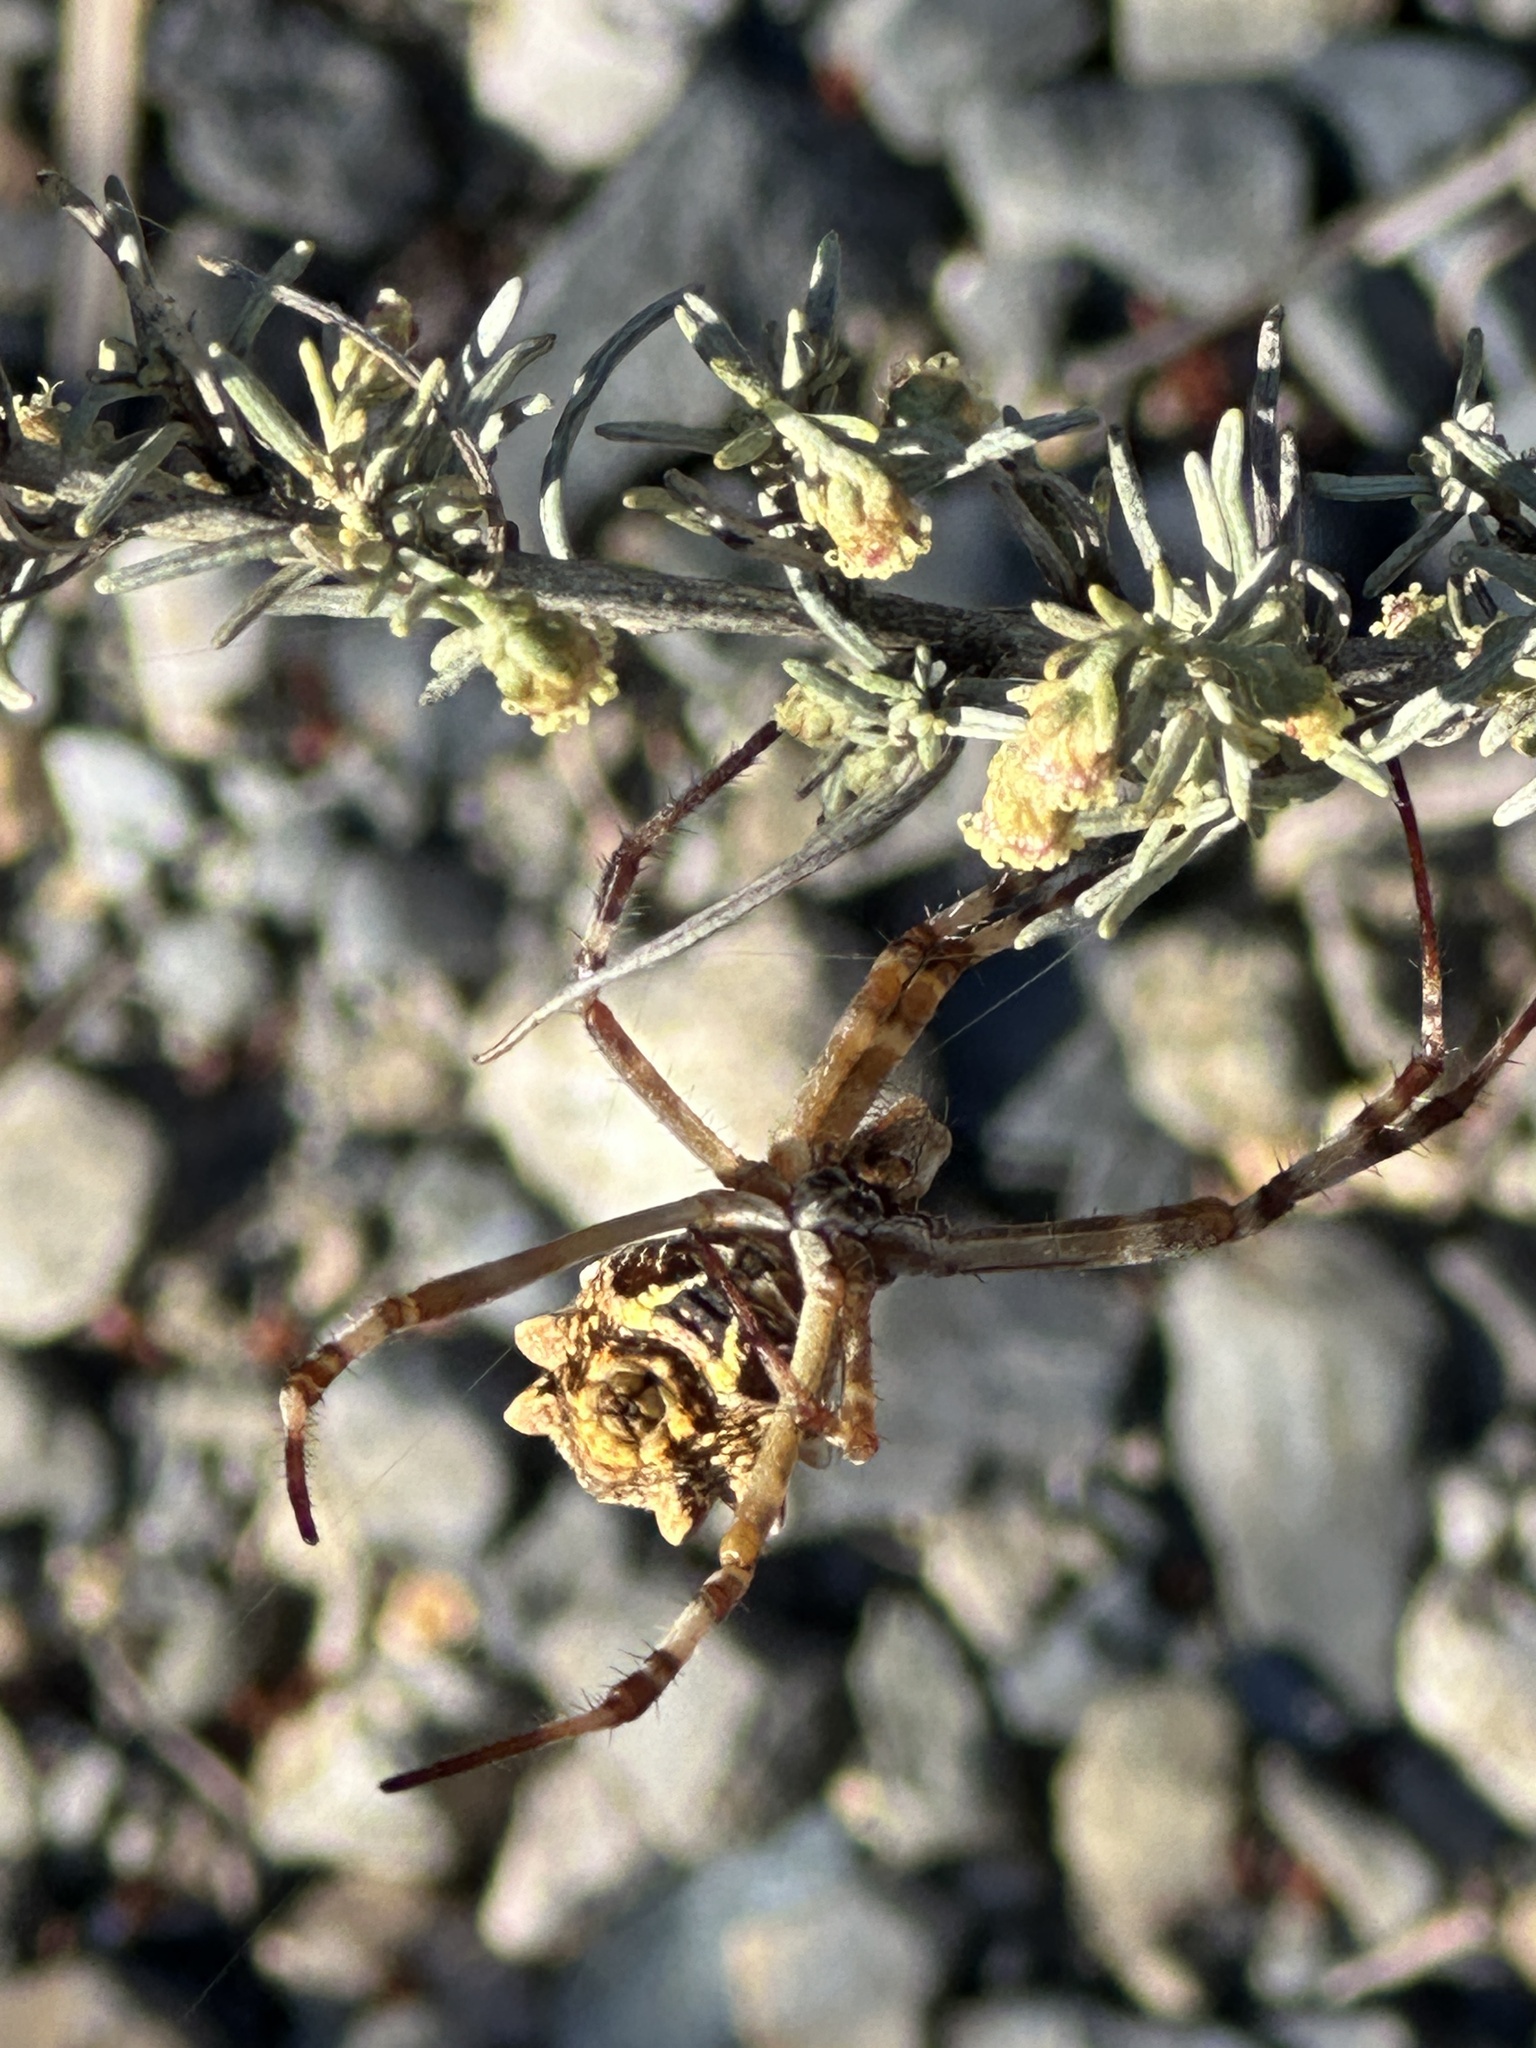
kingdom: Animalia
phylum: Arthropoda
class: Arachnida
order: Araneae
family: Araneidae
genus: Argiope
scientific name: Argiope argentata
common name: Orb weavers
